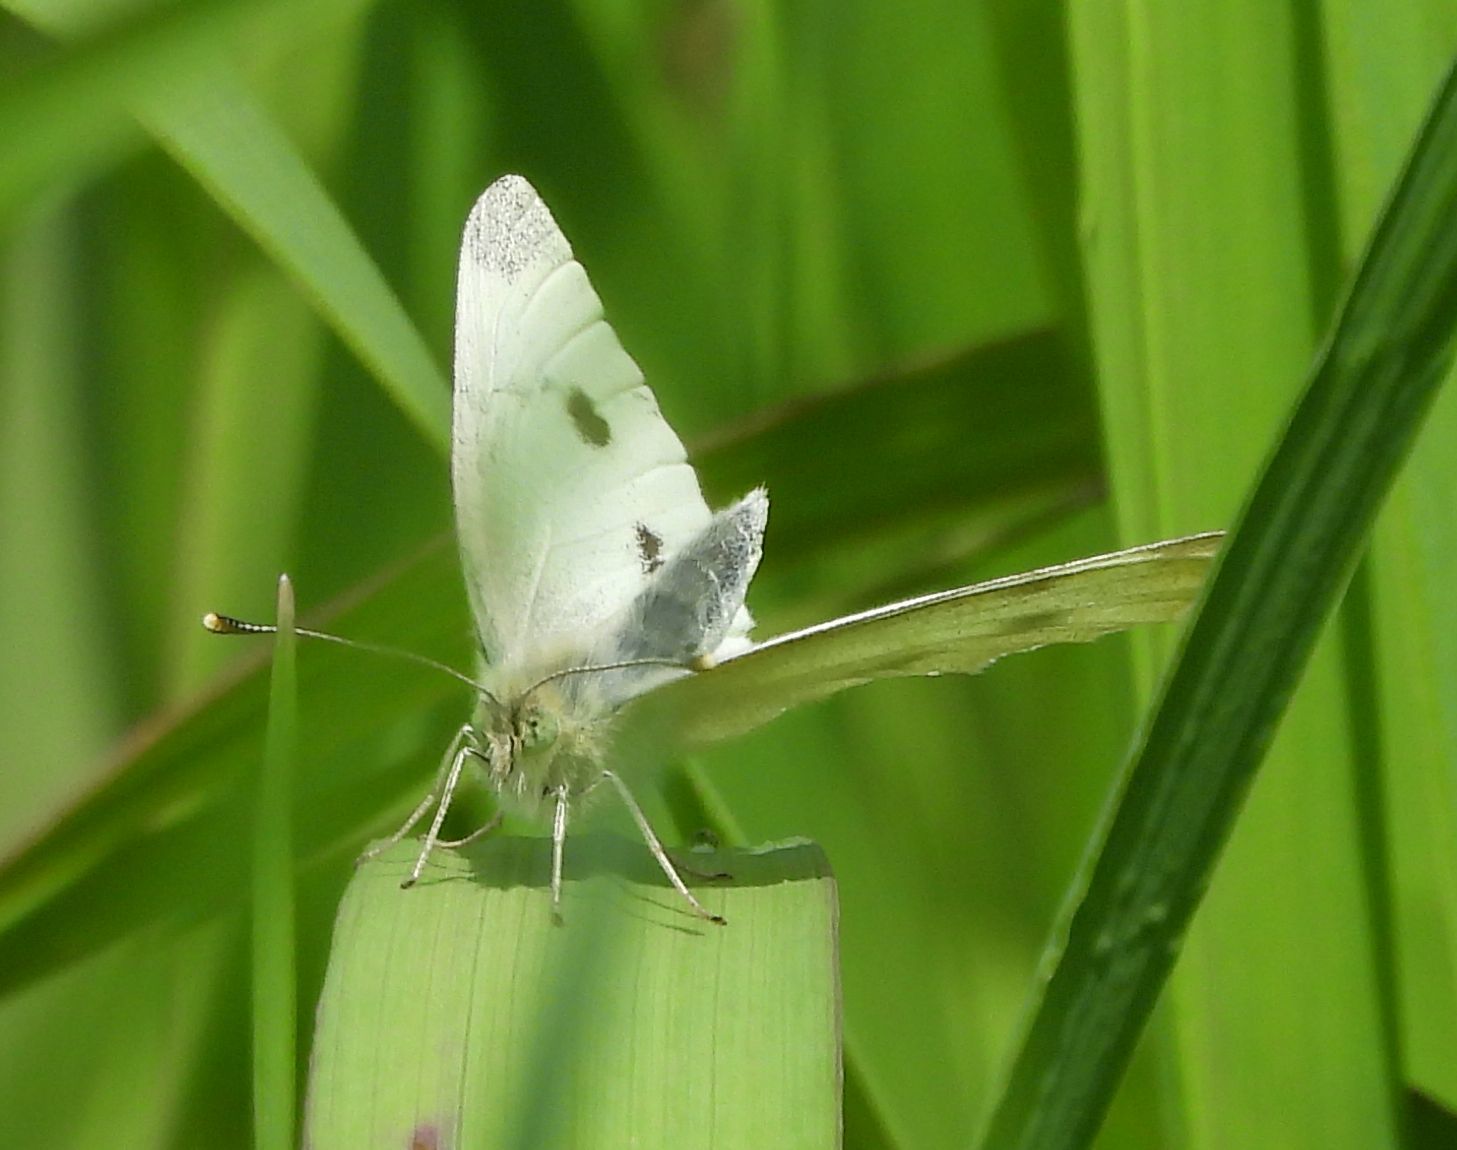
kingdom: Animalia
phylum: Arthropoda
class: Insecta
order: Lepidoptera
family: Pieridae
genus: Pieris
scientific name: Pieris rapae
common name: Small white
